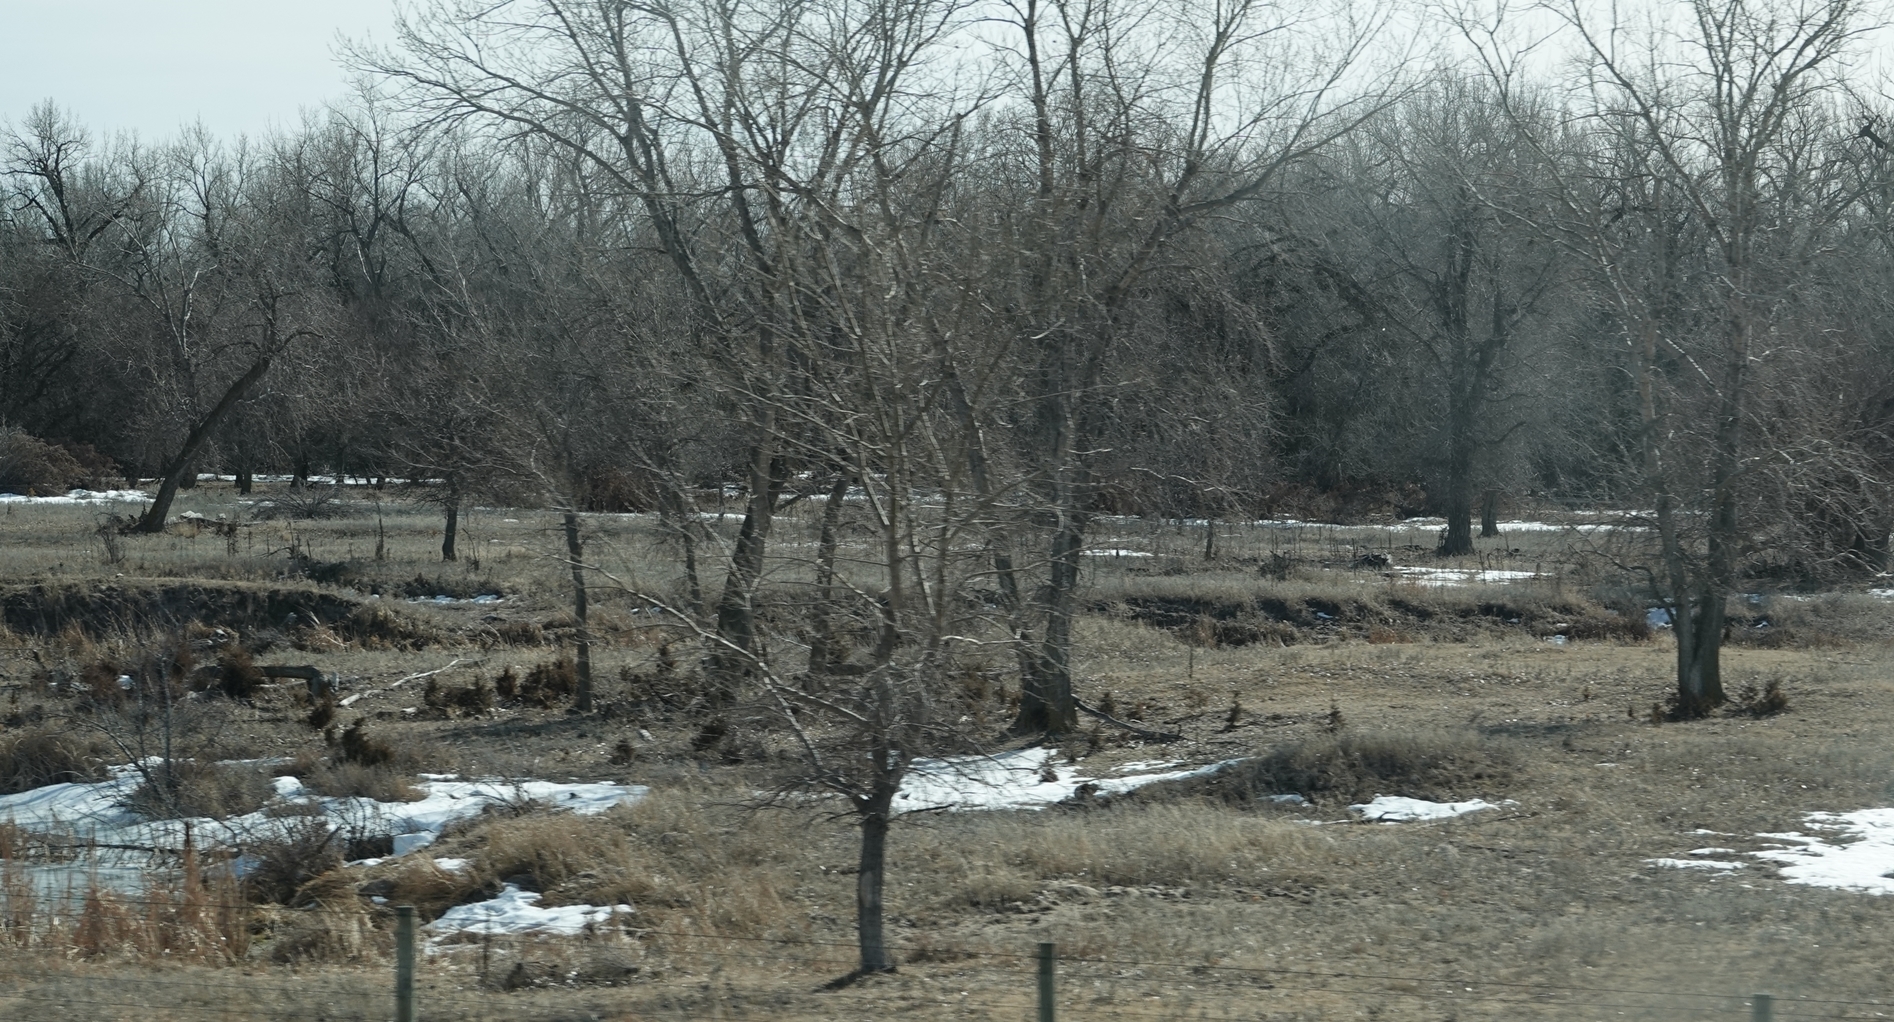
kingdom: Plantae
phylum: Tracheophyta
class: Pinopsida
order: Pinales
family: Cupressaceae
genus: Juniperus
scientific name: Juniperus virginiana
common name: Red juniper
